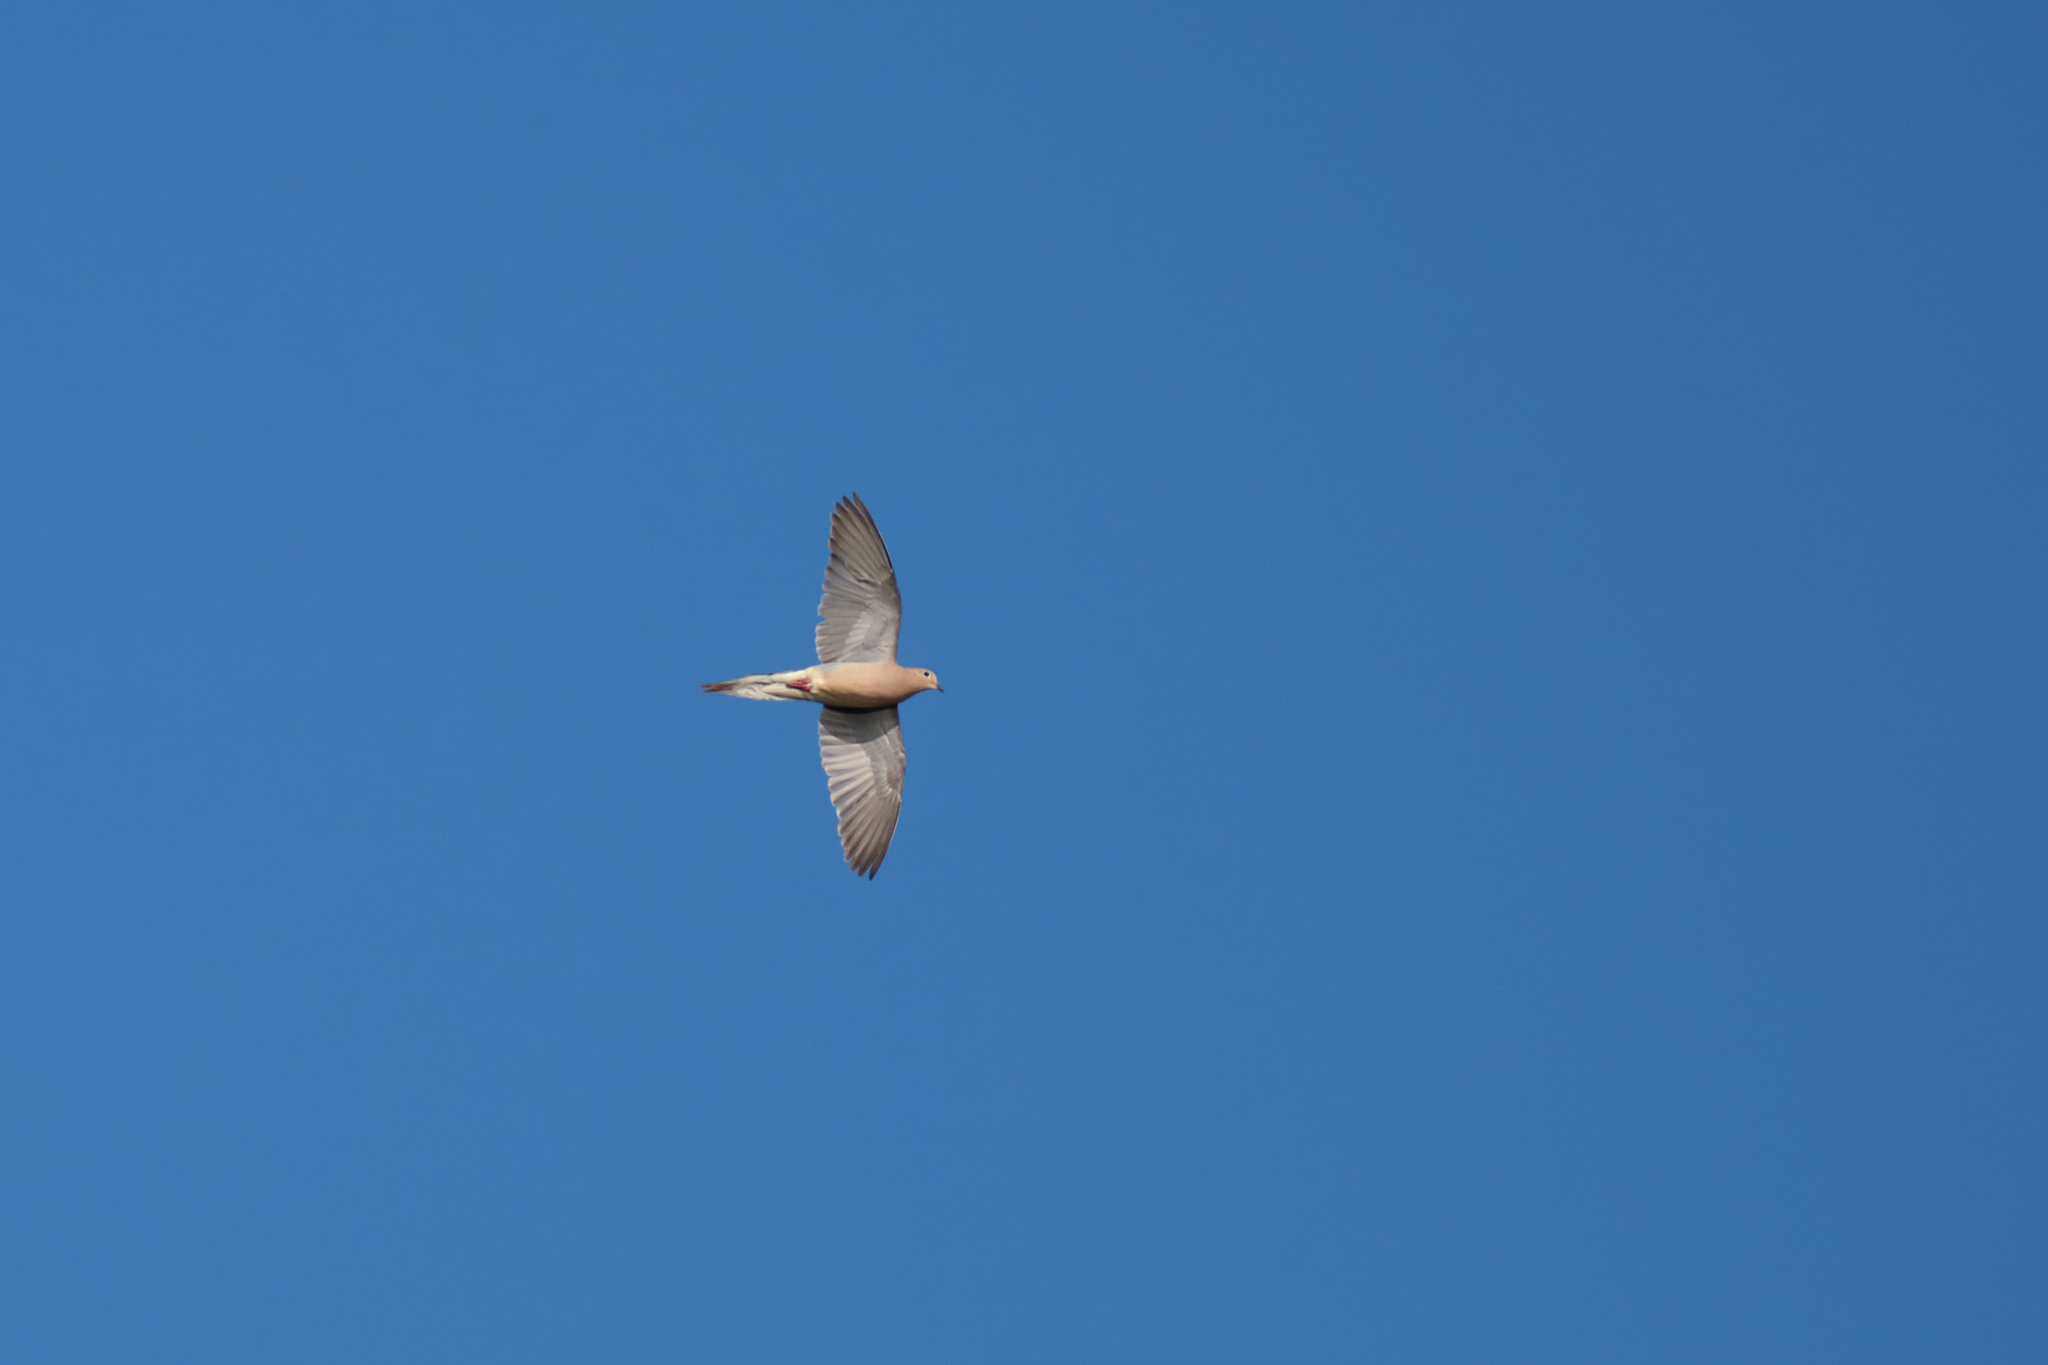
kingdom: Animalia
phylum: Chordata
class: Aves
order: Columbiformes
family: Columbidae
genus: Zenaida
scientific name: Zenaida macroura
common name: Mourning dove
